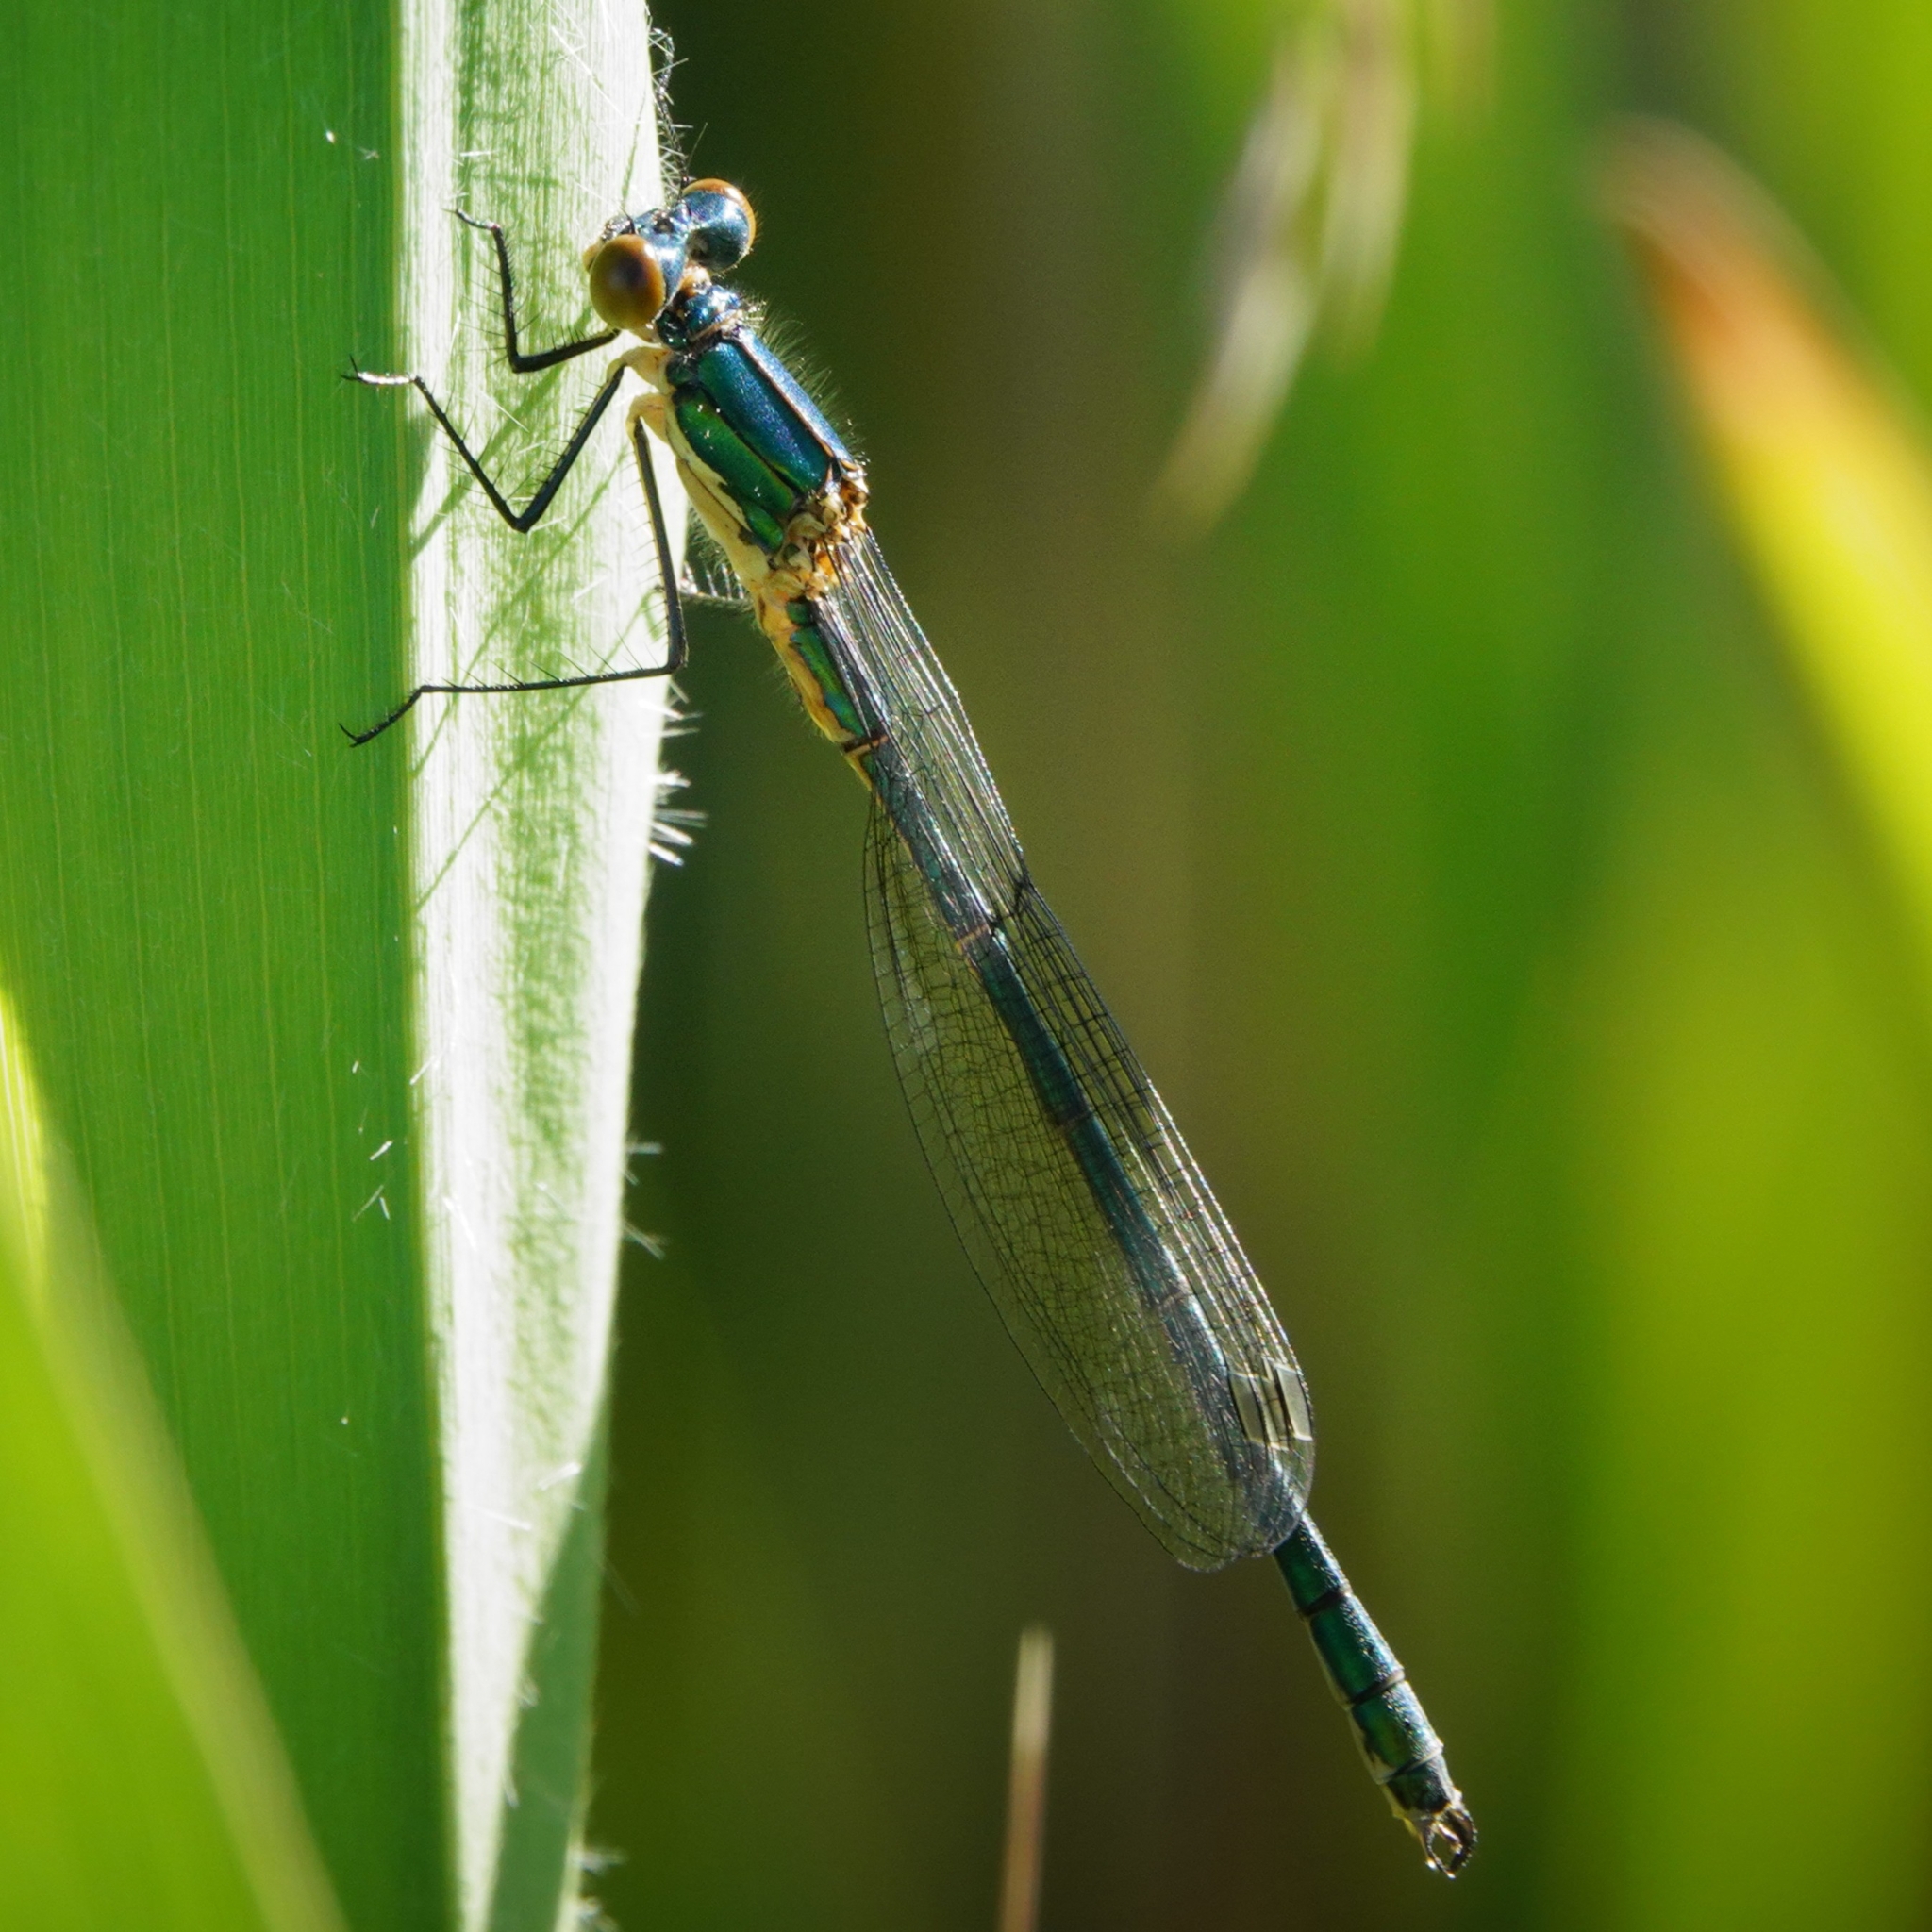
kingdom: Animalia
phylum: Arthropoda
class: Insecta
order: Odonata
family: Lestidae
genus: Lestes
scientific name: Lestes dryas
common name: Scarce emerald damselfly
